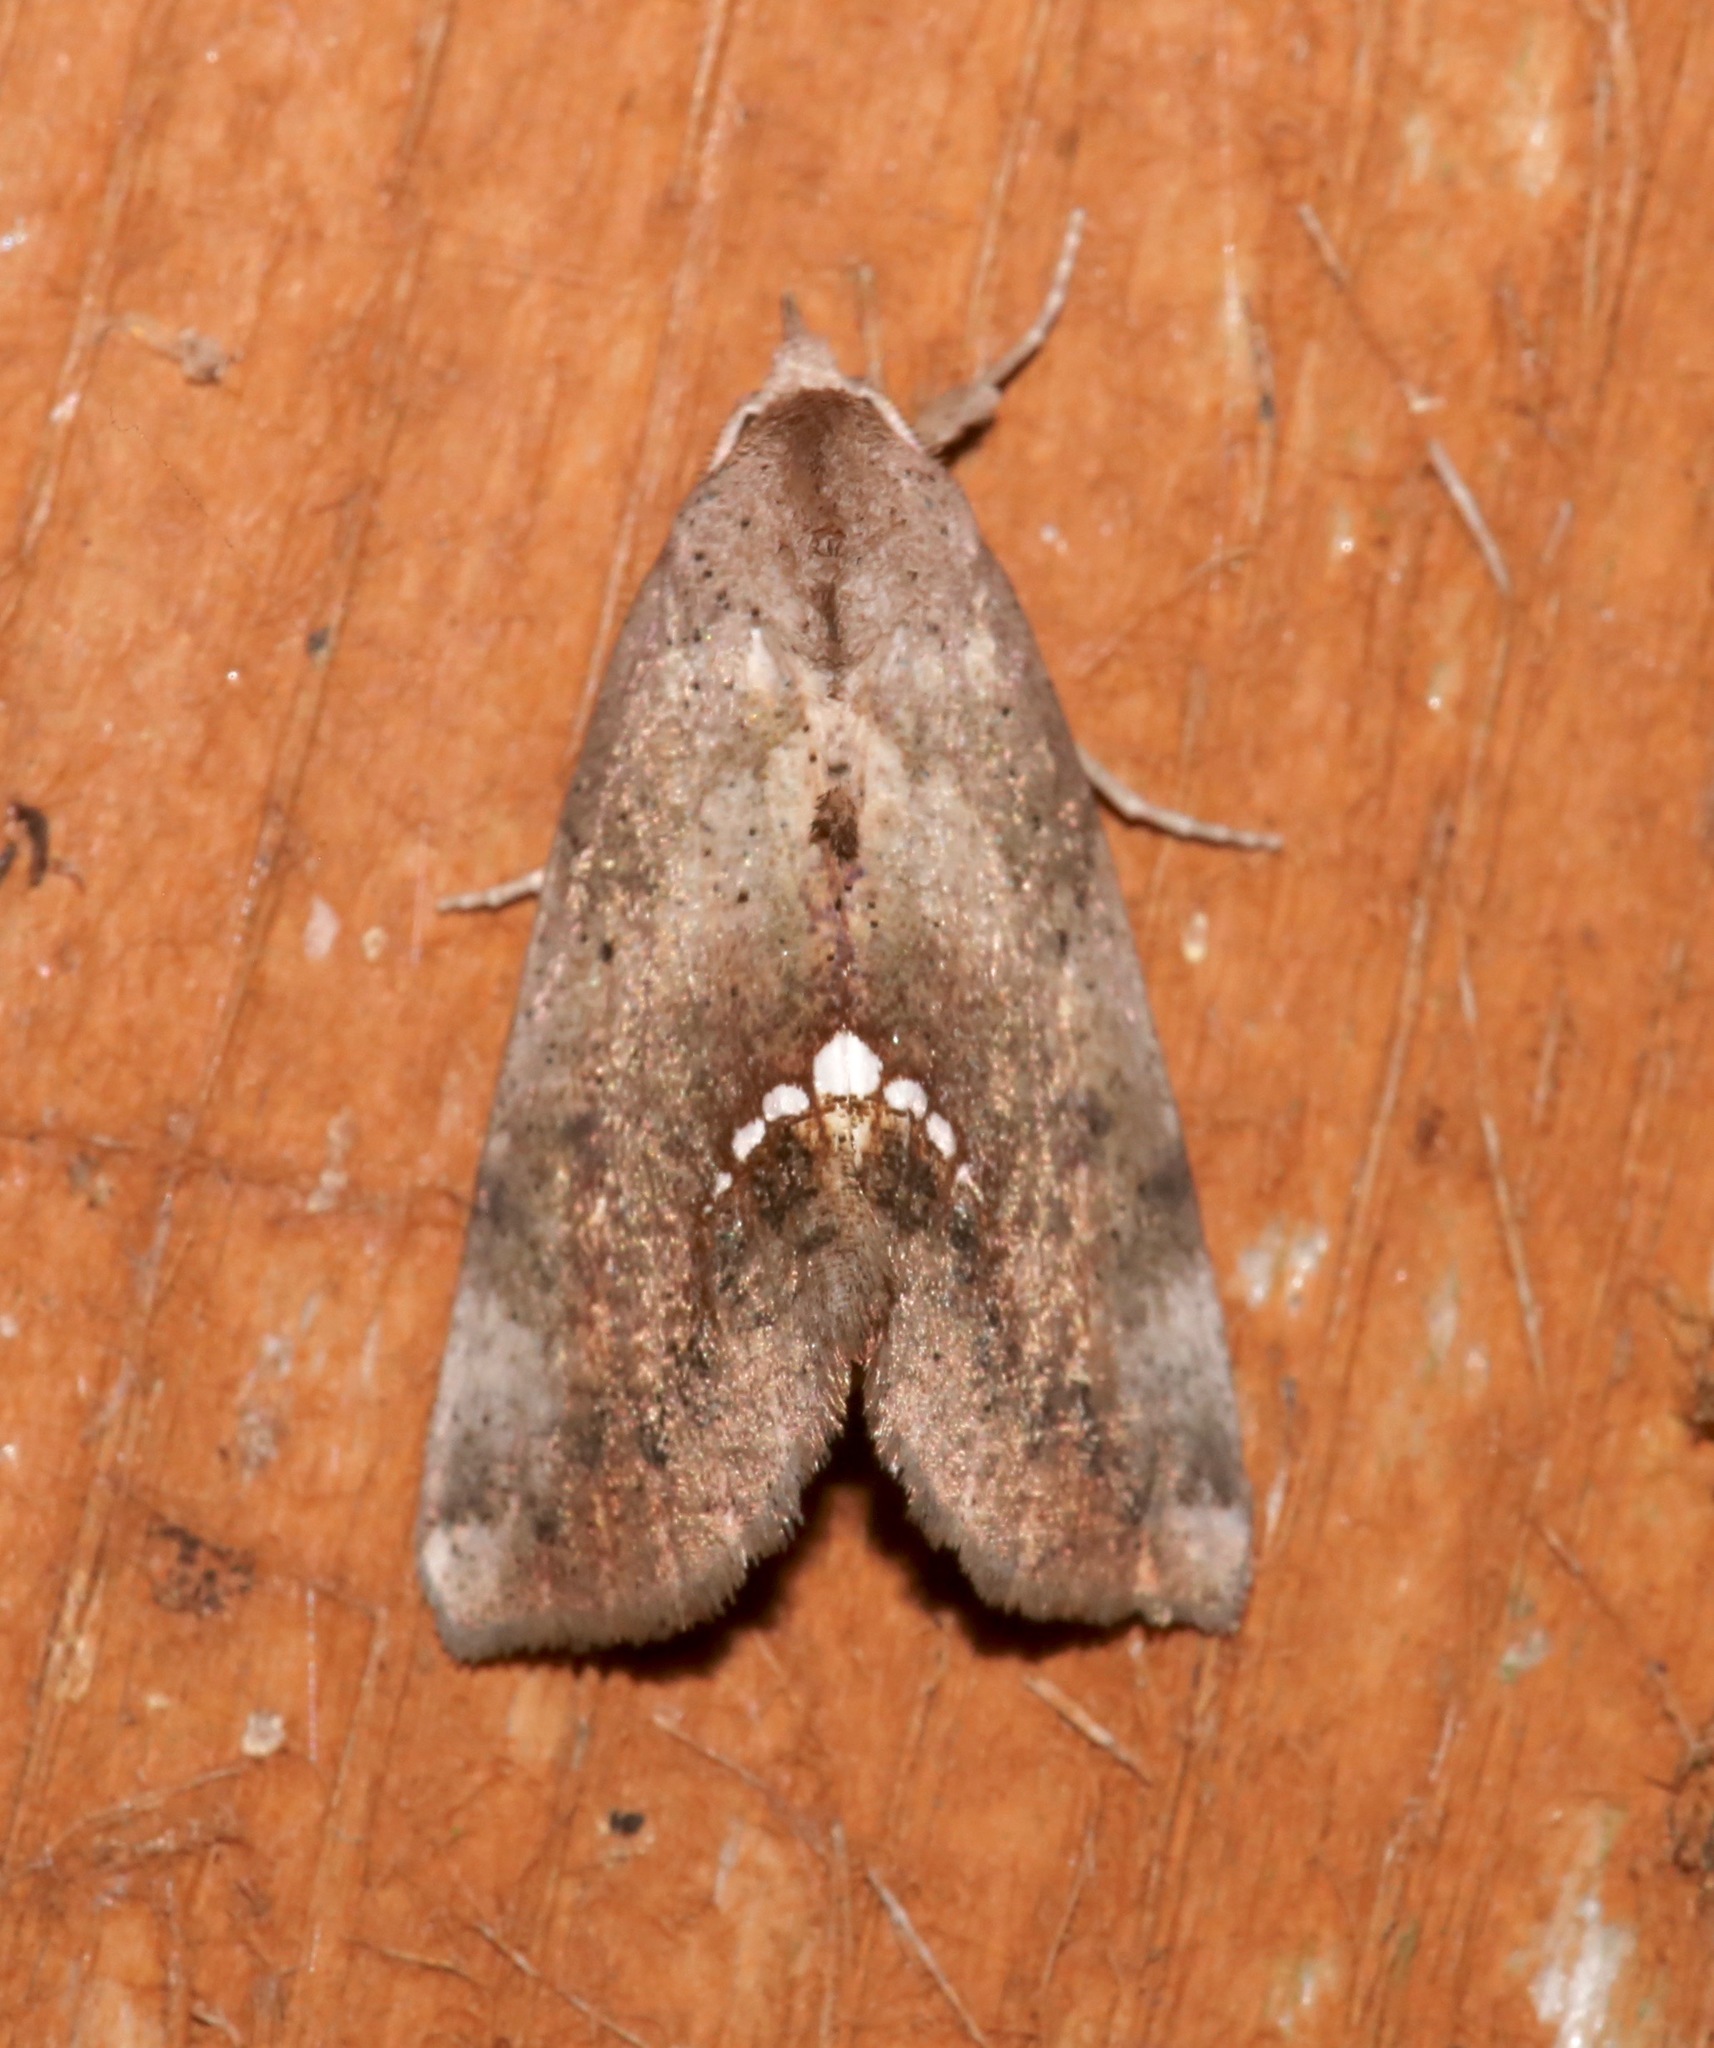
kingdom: Animalia
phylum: Arthropoda
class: Insecta
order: Lepidoptera
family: Erebidae
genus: Hypsoropha
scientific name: Hypsoropha hormos
